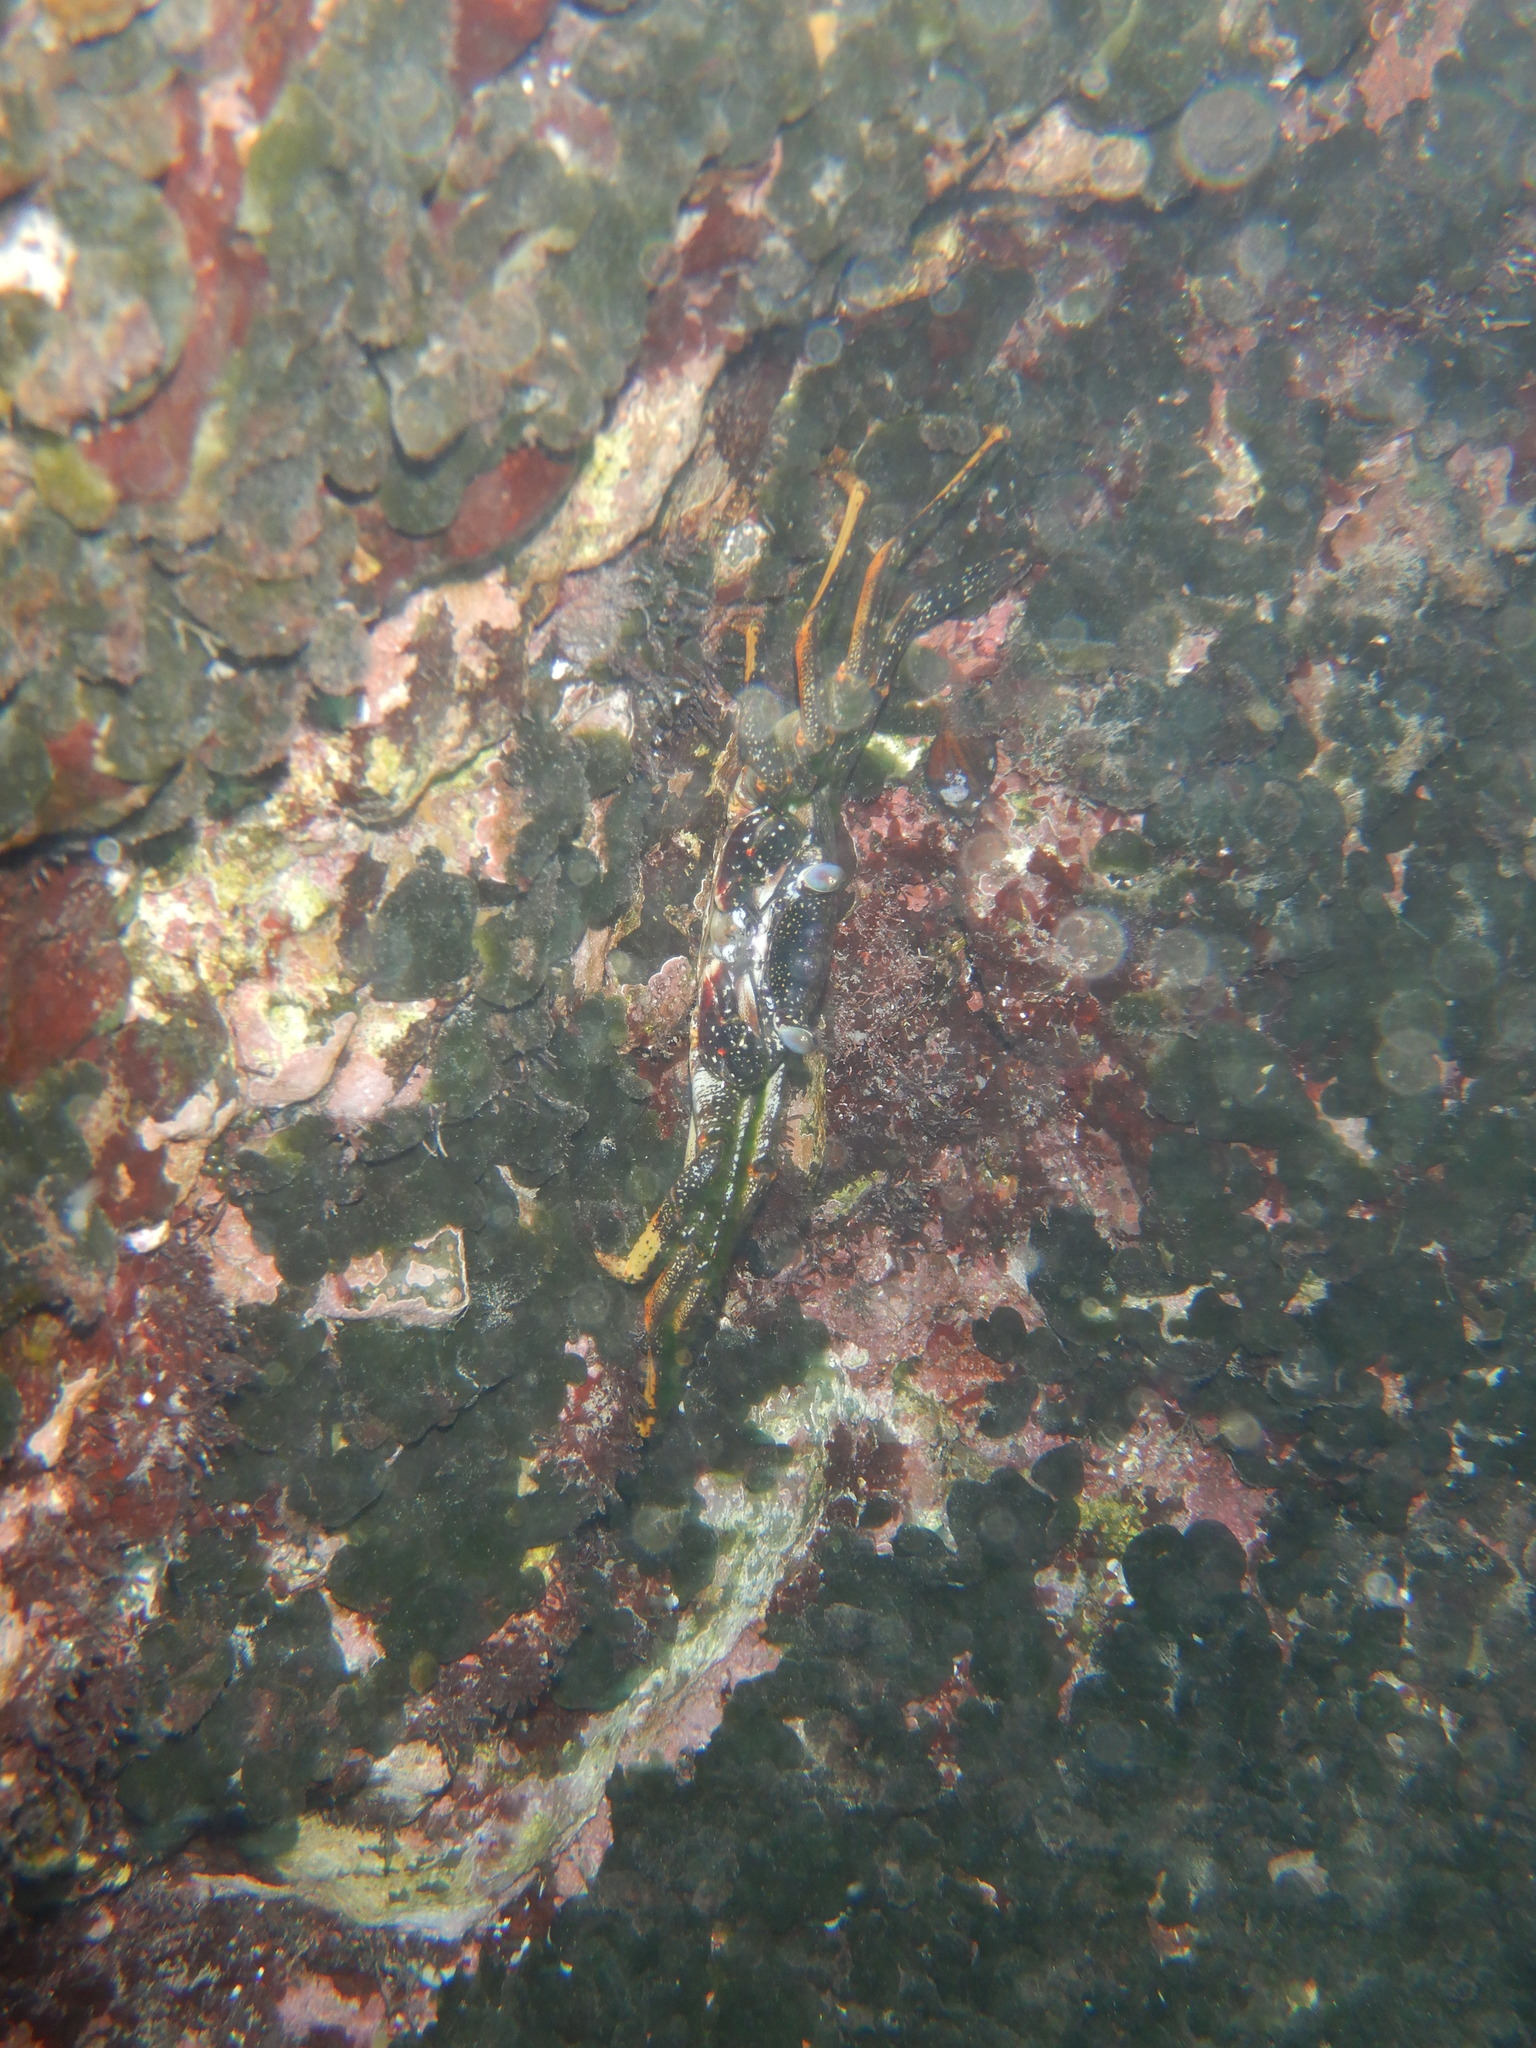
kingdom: Animalia
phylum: Arthropoda
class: Malacostraca
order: Decapoda
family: Grapsidae
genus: Grapsus
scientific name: Grapsus adscensionis
